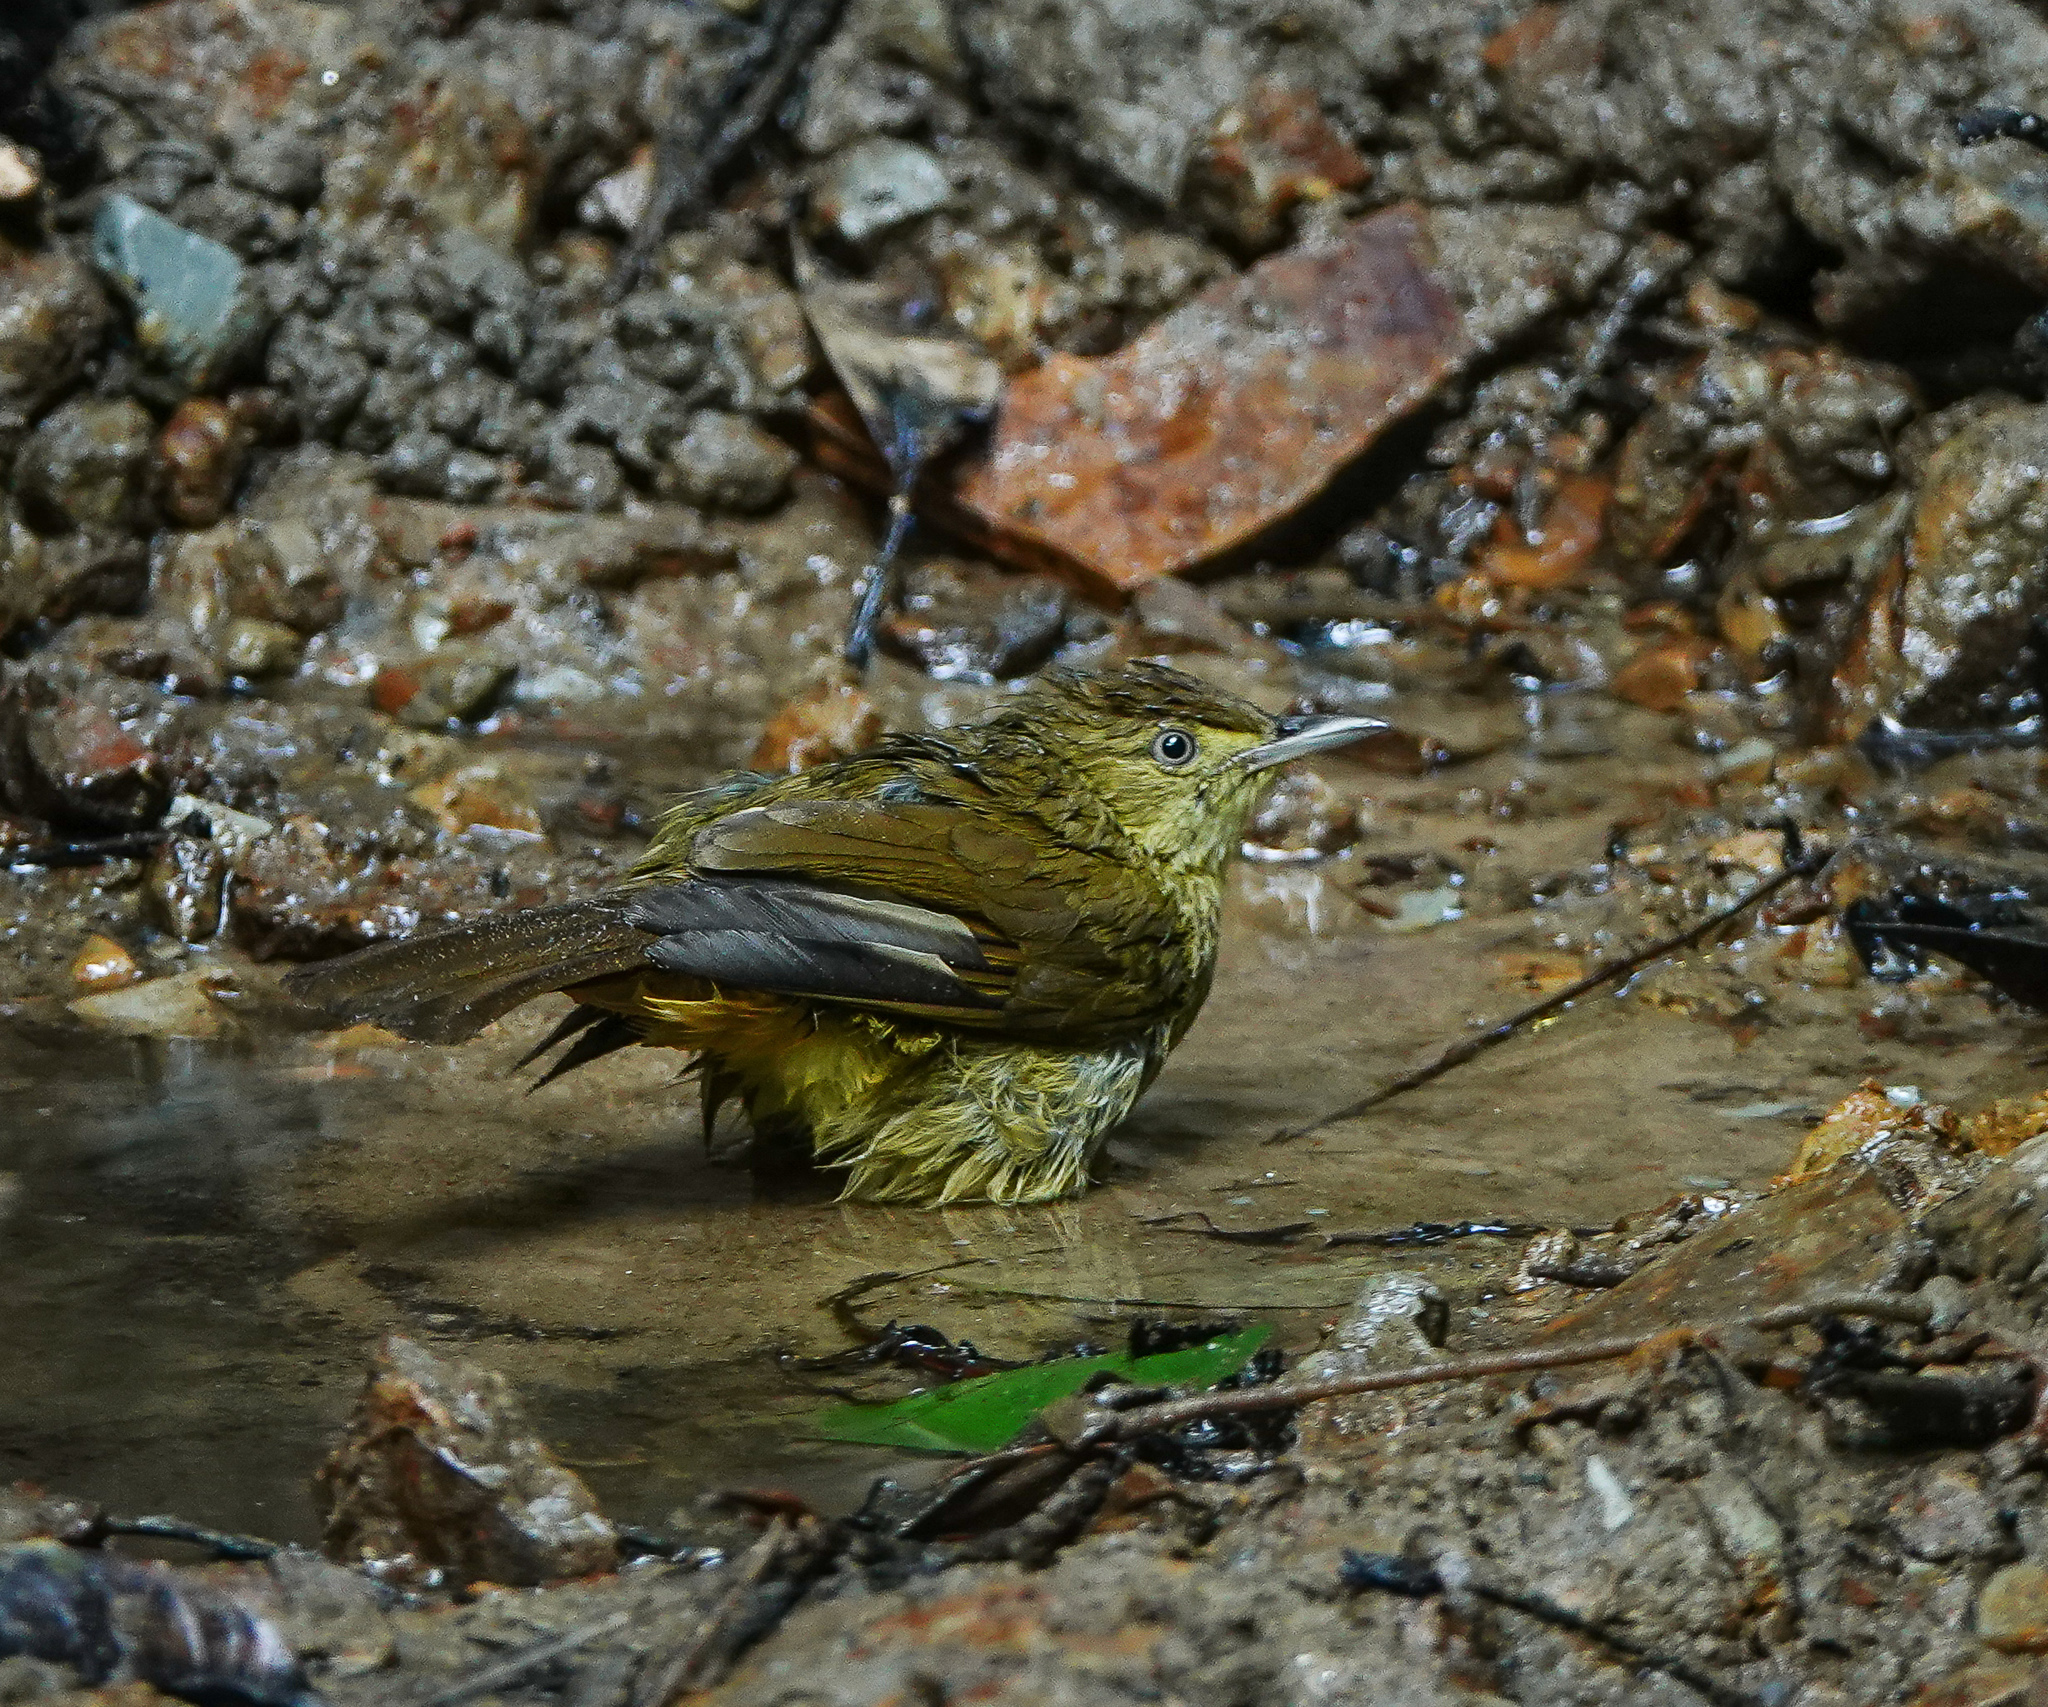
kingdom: Animalia
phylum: Chordata
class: Aves
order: Passeriformes
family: Pycnonotidae
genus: Iole
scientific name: Iole virescens
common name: Olive bulbul
